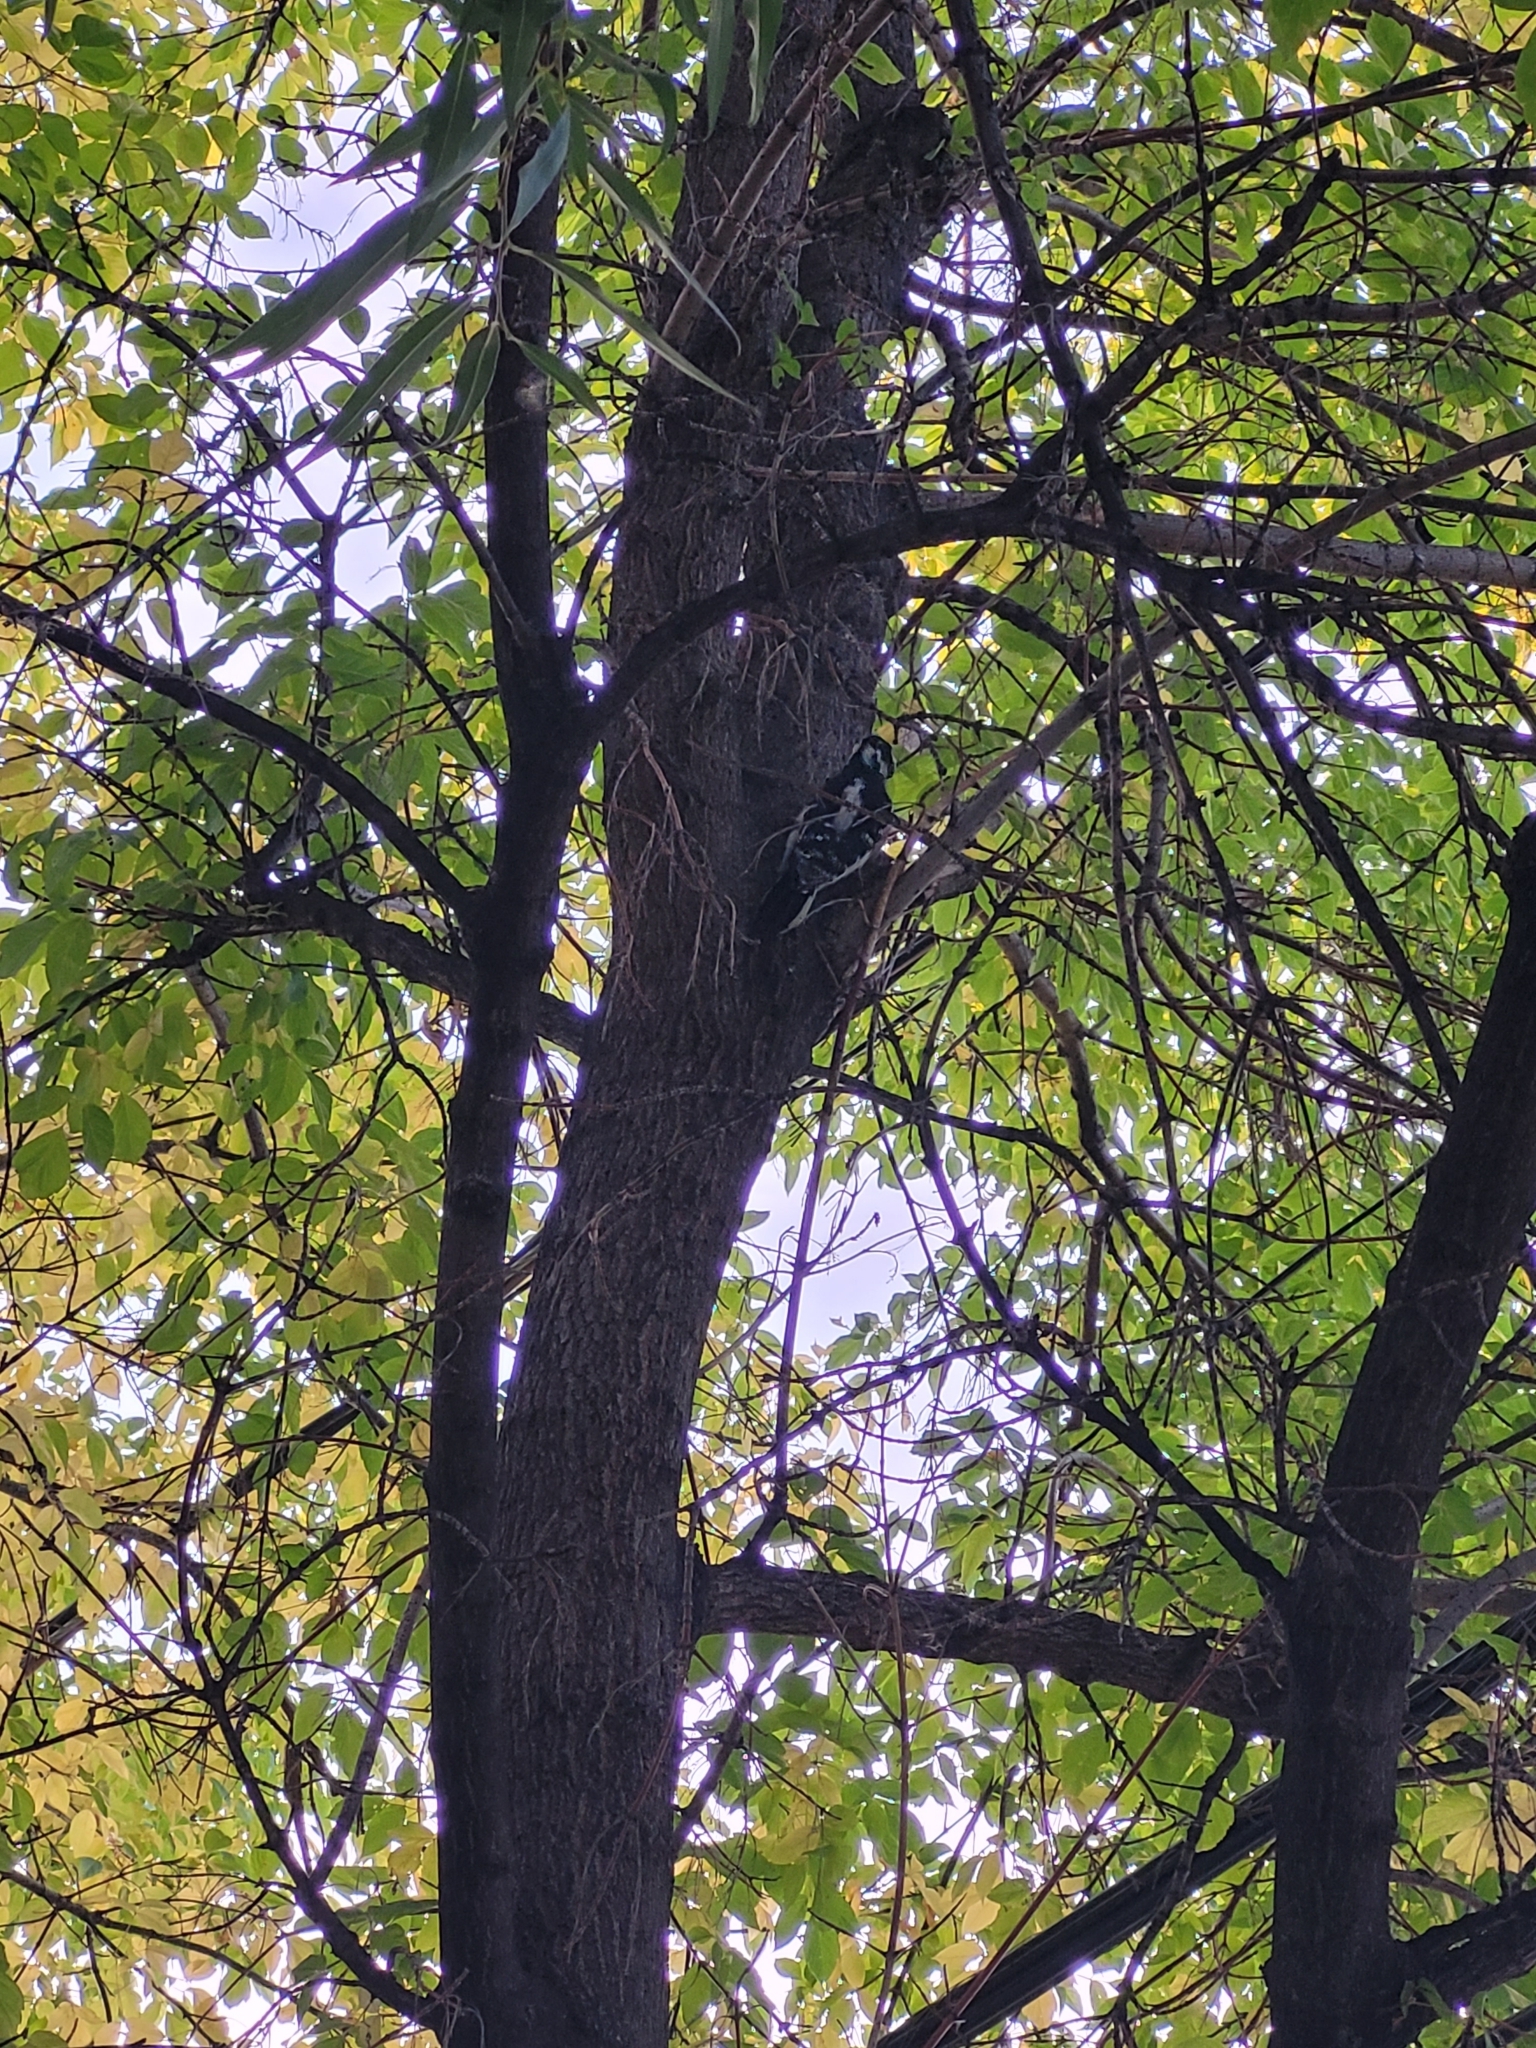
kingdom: Animalia
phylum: Chordata
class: Aves
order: Piciformes
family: Picidae
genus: Leuconotopicus
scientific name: Leuconotopicus villosus
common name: Hairy woodpecker
